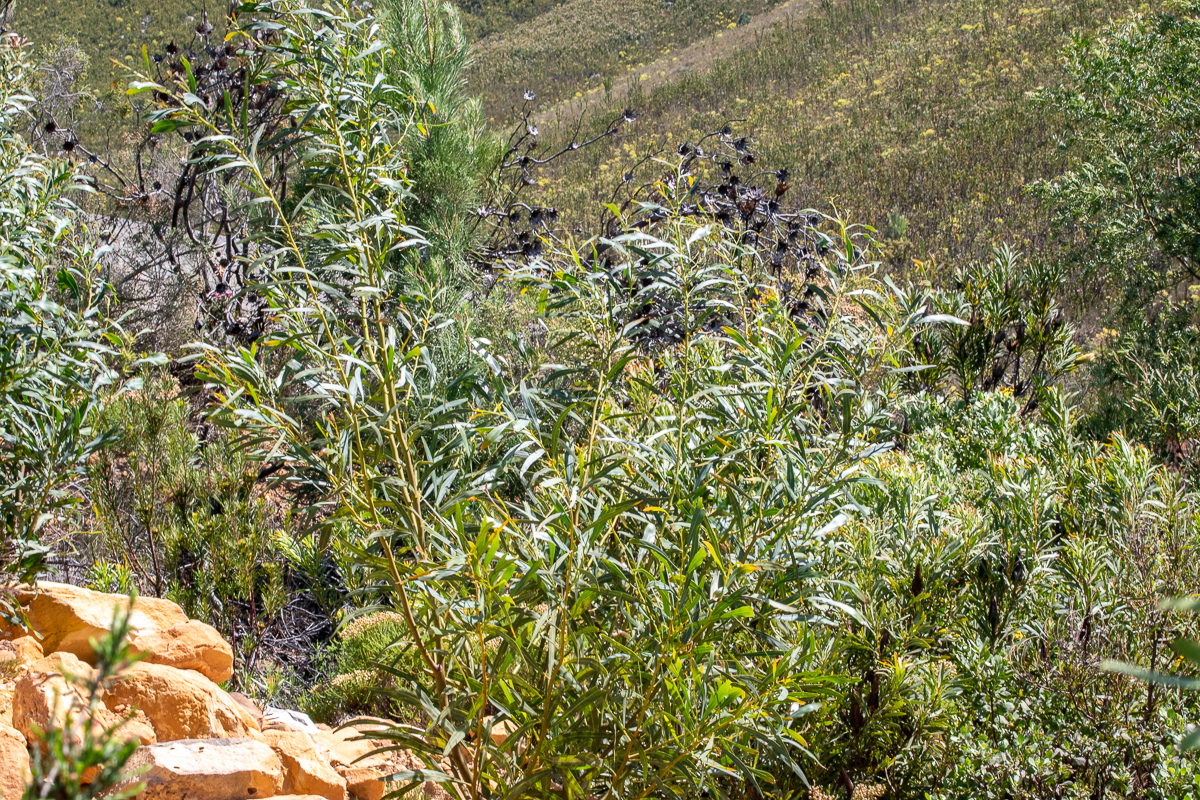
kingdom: Plantae
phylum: Tracheophyta
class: Magnoliopsida
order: Fabales
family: Fabaceae
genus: Acacia
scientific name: Acacia saligna
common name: Orange wattle
